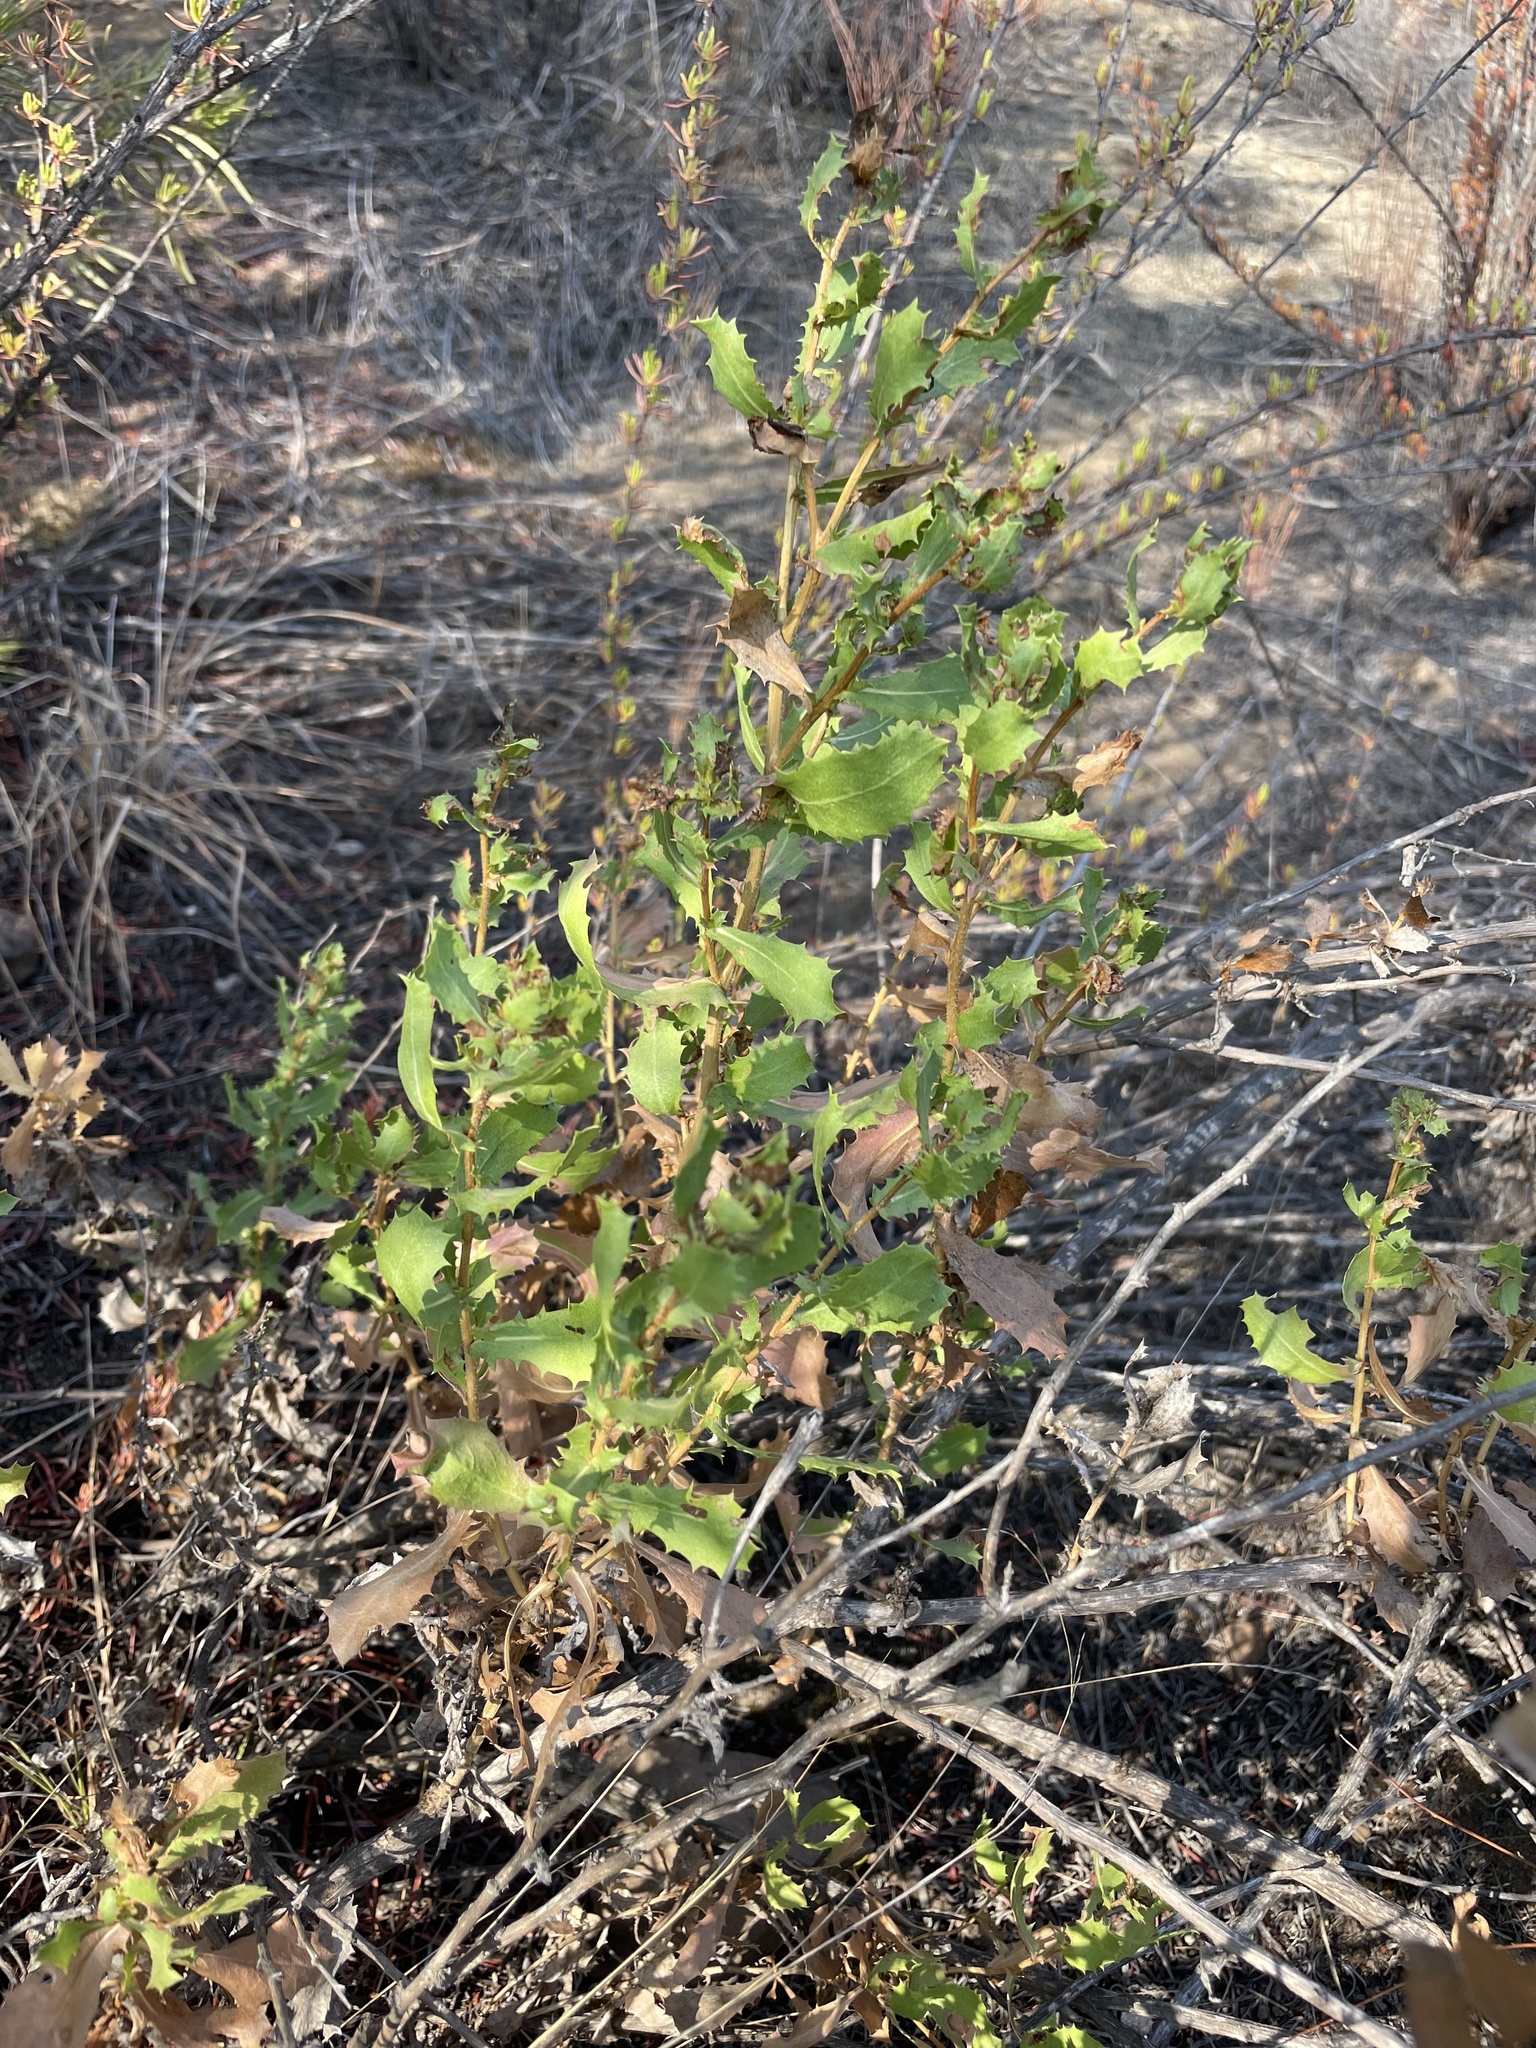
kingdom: Plantae
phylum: Tracheophyta
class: Magnoliopsida
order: Asterales
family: Asteraceae
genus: Hazardia
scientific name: Hazardia berberidis
